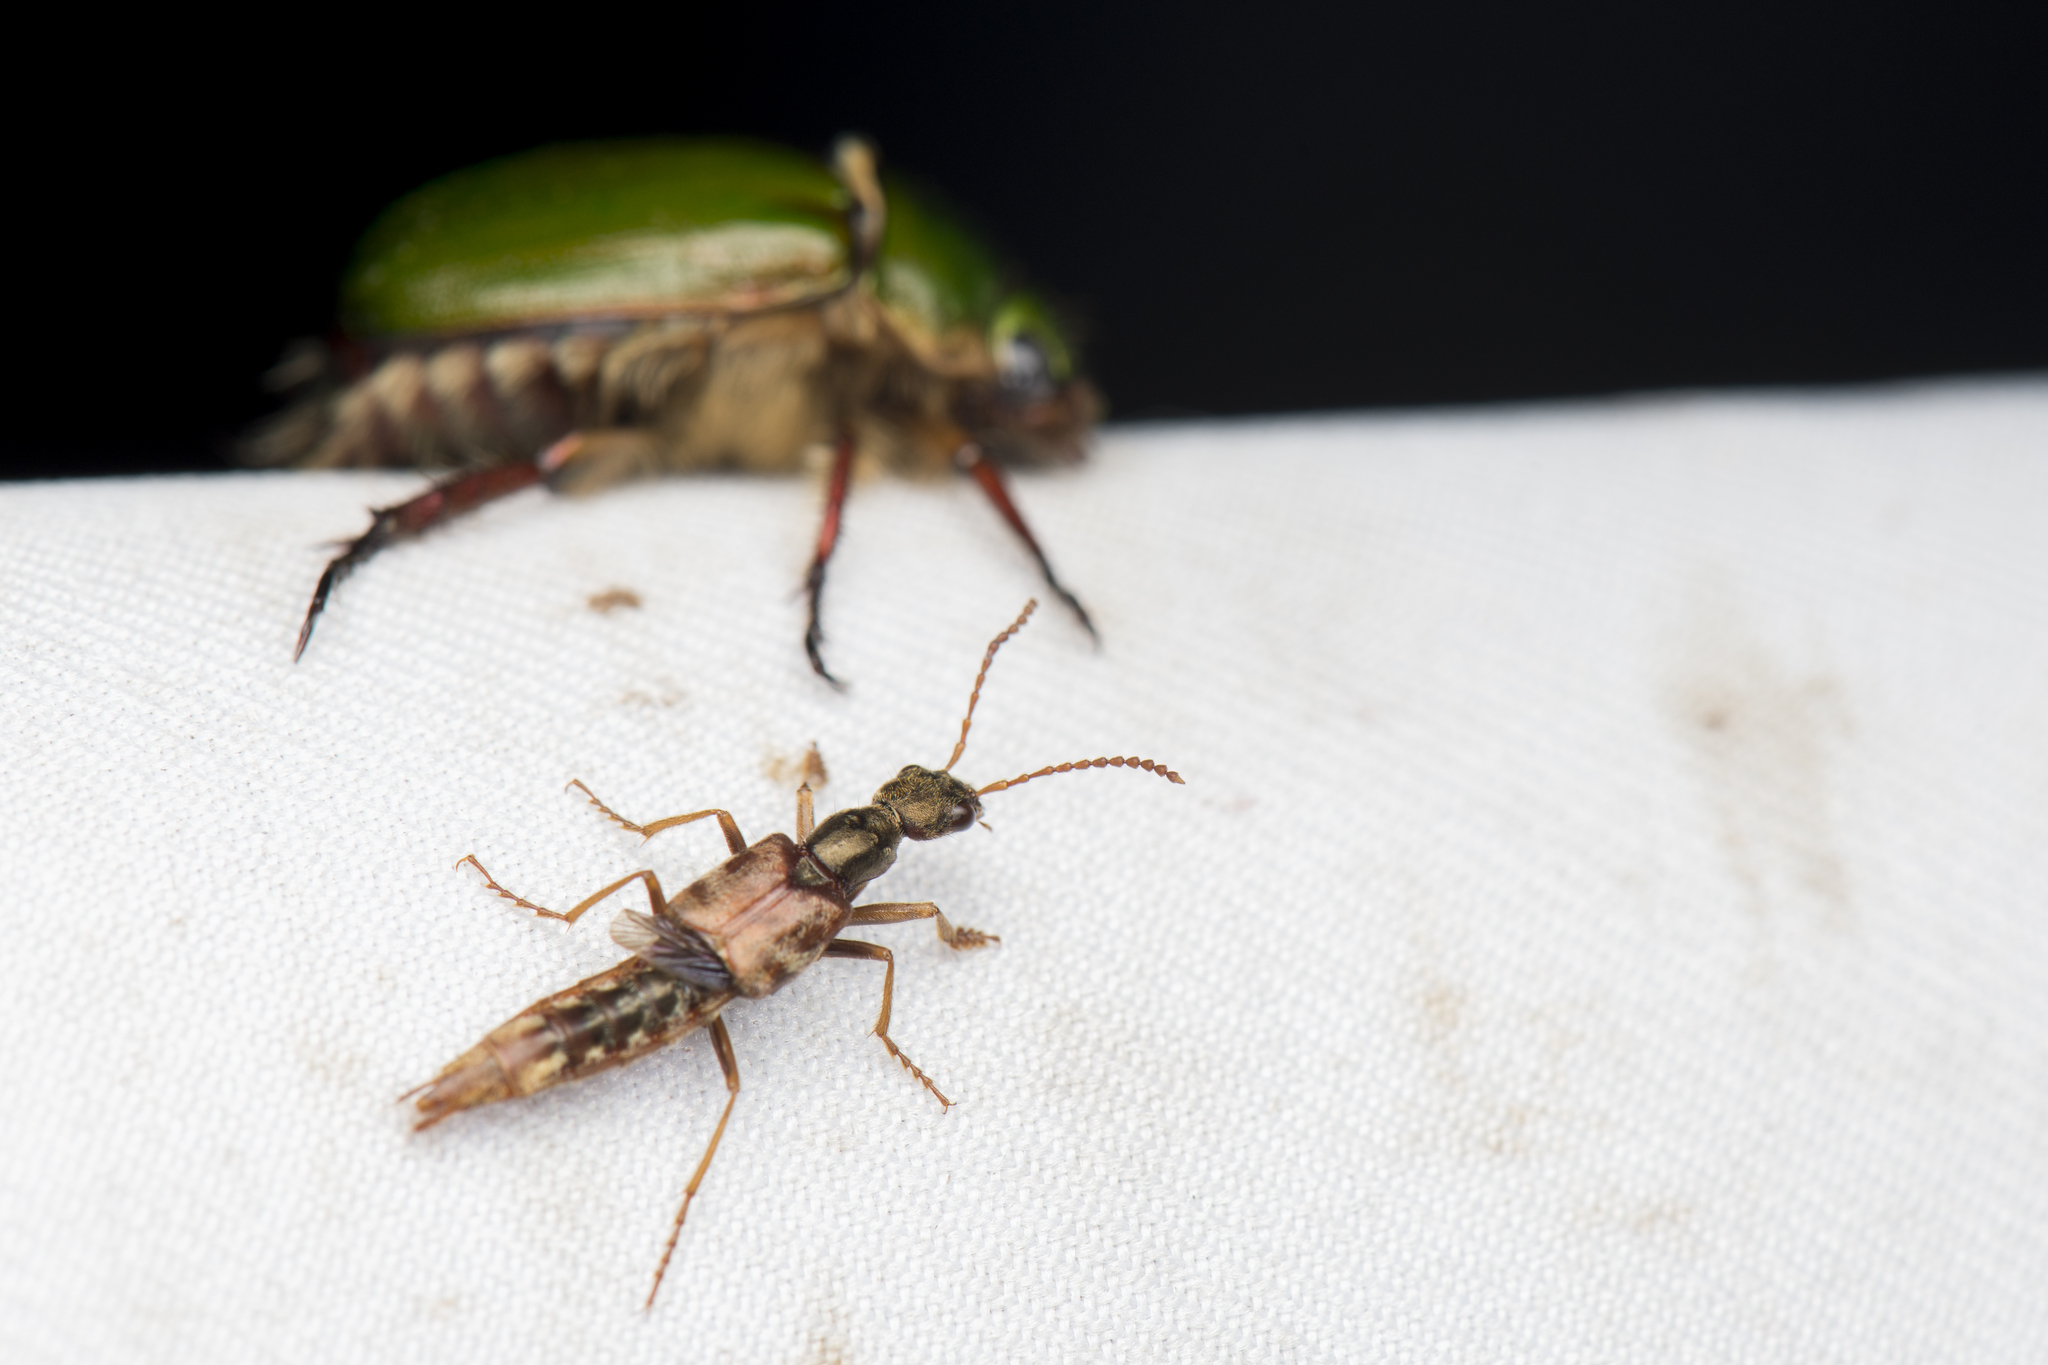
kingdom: Animalia
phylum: Arthropoda
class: Insecta
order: Coleoptera
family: Staphylinidae
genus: Eucibdelus
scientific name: Eucibdelus sauteri
